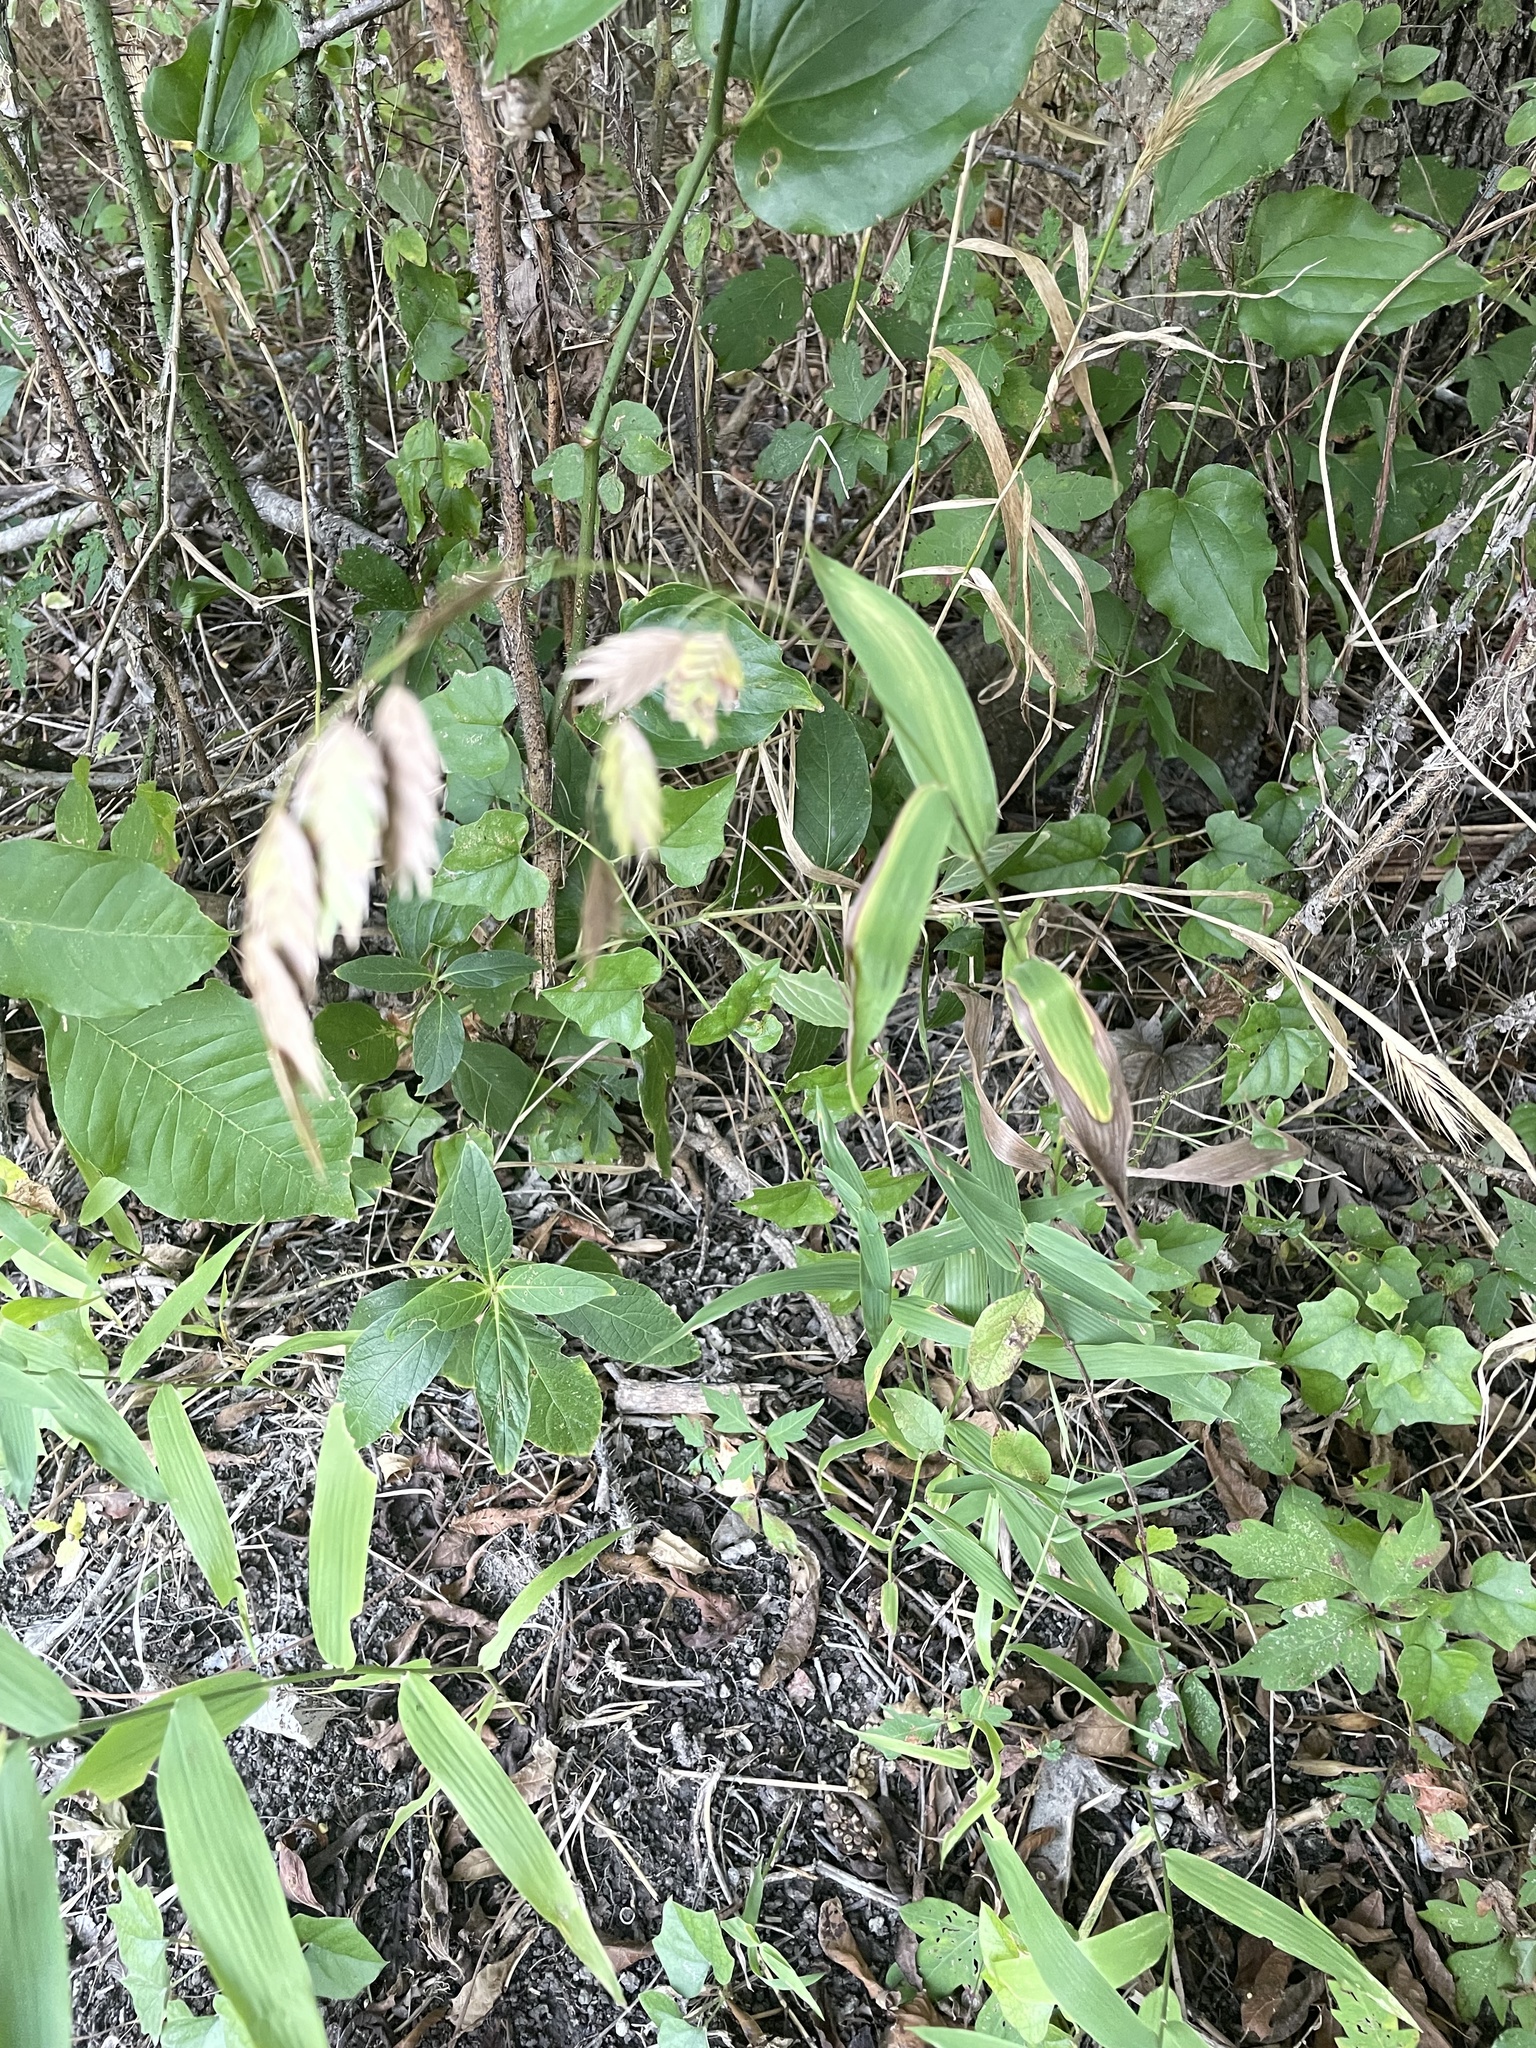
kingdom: Plantae
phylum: Tracheophyta
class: Liliopsida
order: Poales
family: Poaceae
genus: Chasmanthium
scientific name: Chasmanthium latifolium
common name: Broad-leaved chasmanthium
